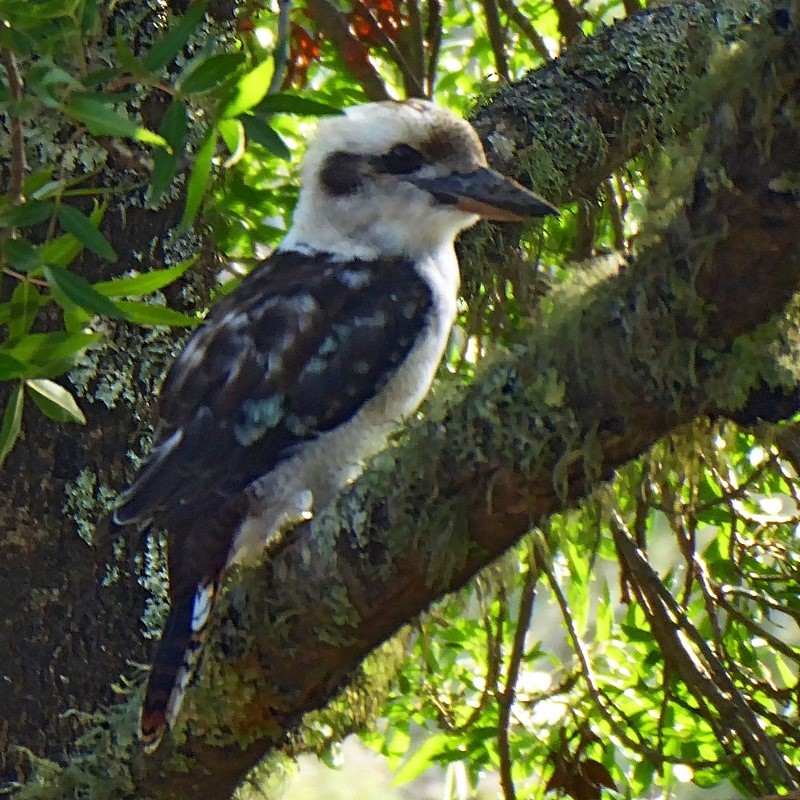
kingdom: Animalia
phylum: Chordata
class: Aves
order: Coraciiformes
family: Alcedinidae
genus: Dacelo
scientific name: Dacelo novaeguineae
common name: Laughing kookaburra
